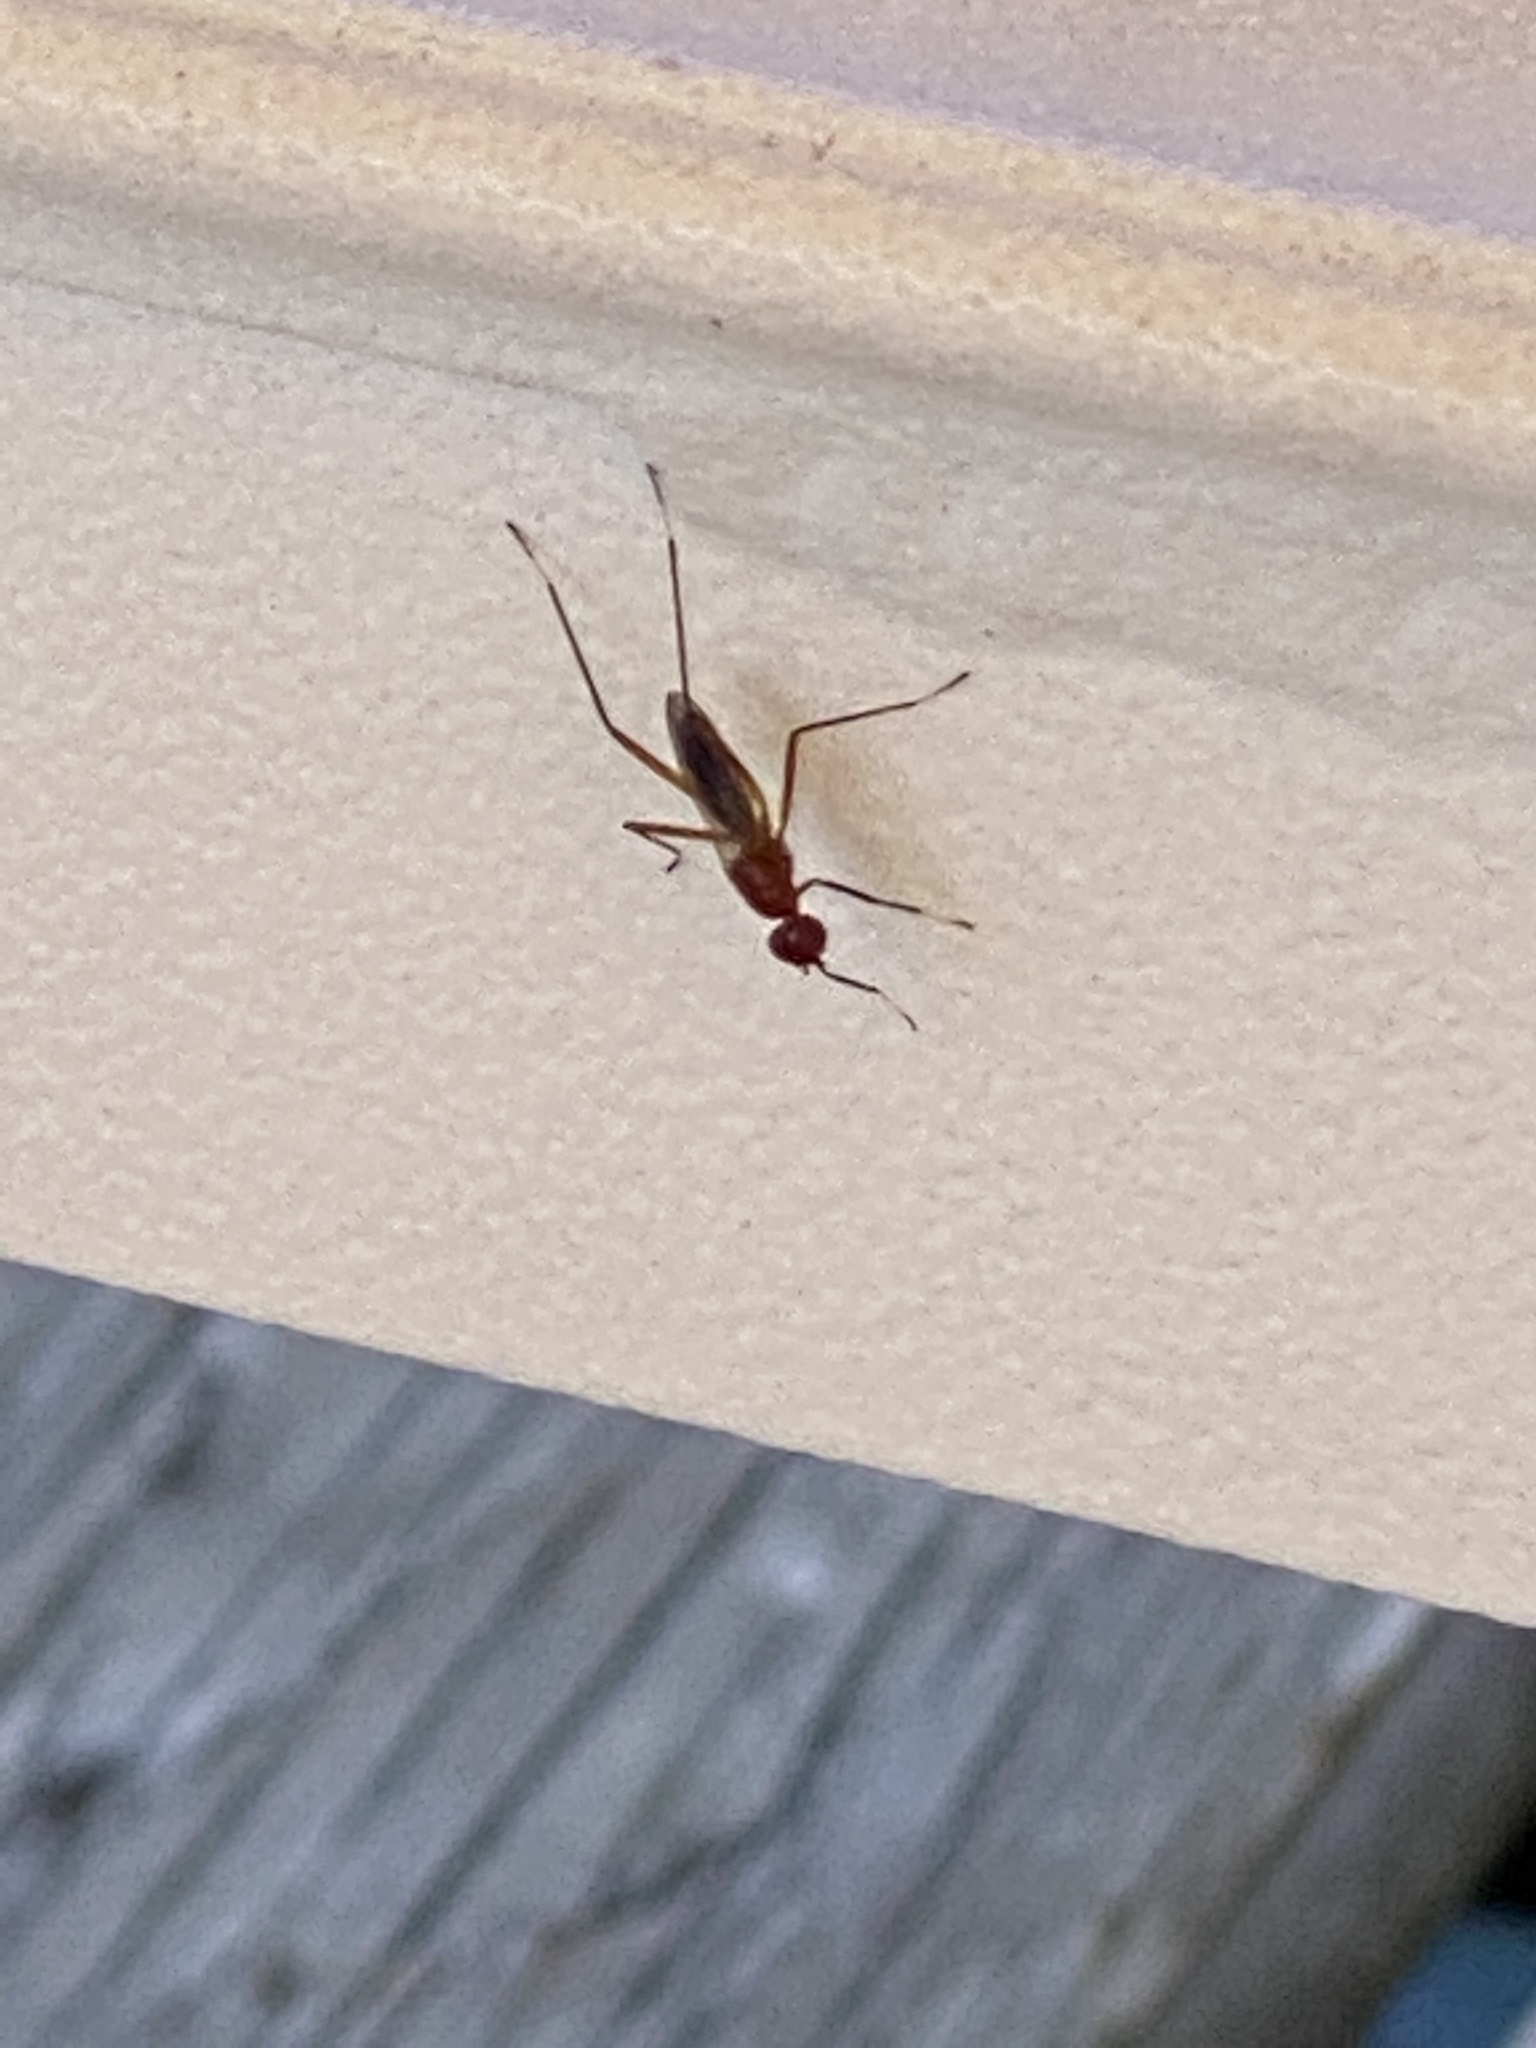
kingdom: Animalia
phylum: Arthropoda
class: Insecta
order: Diptera
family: Micropezidae
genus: Grallipeza
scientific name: Grallipeza nebulosa
